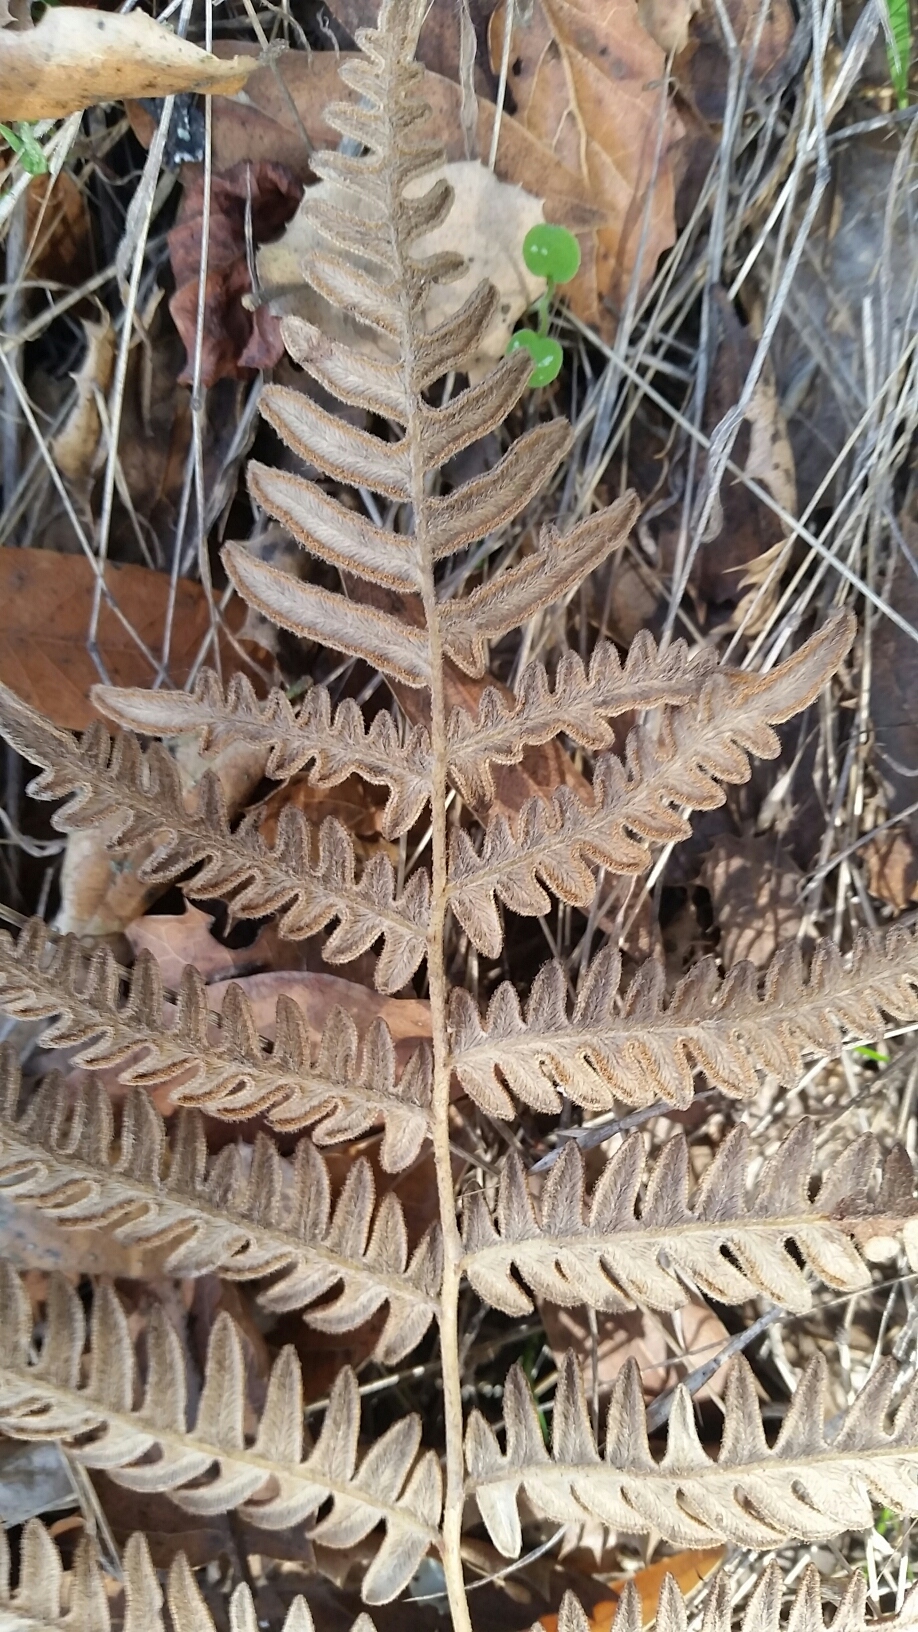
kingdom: Plantae
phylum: Tracheophyta
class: Polypodiopsida
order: Polypodiales
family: Dennstaedtiaceae
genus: Pteridium
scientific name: Pteridium aquilinum
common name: Bracken
